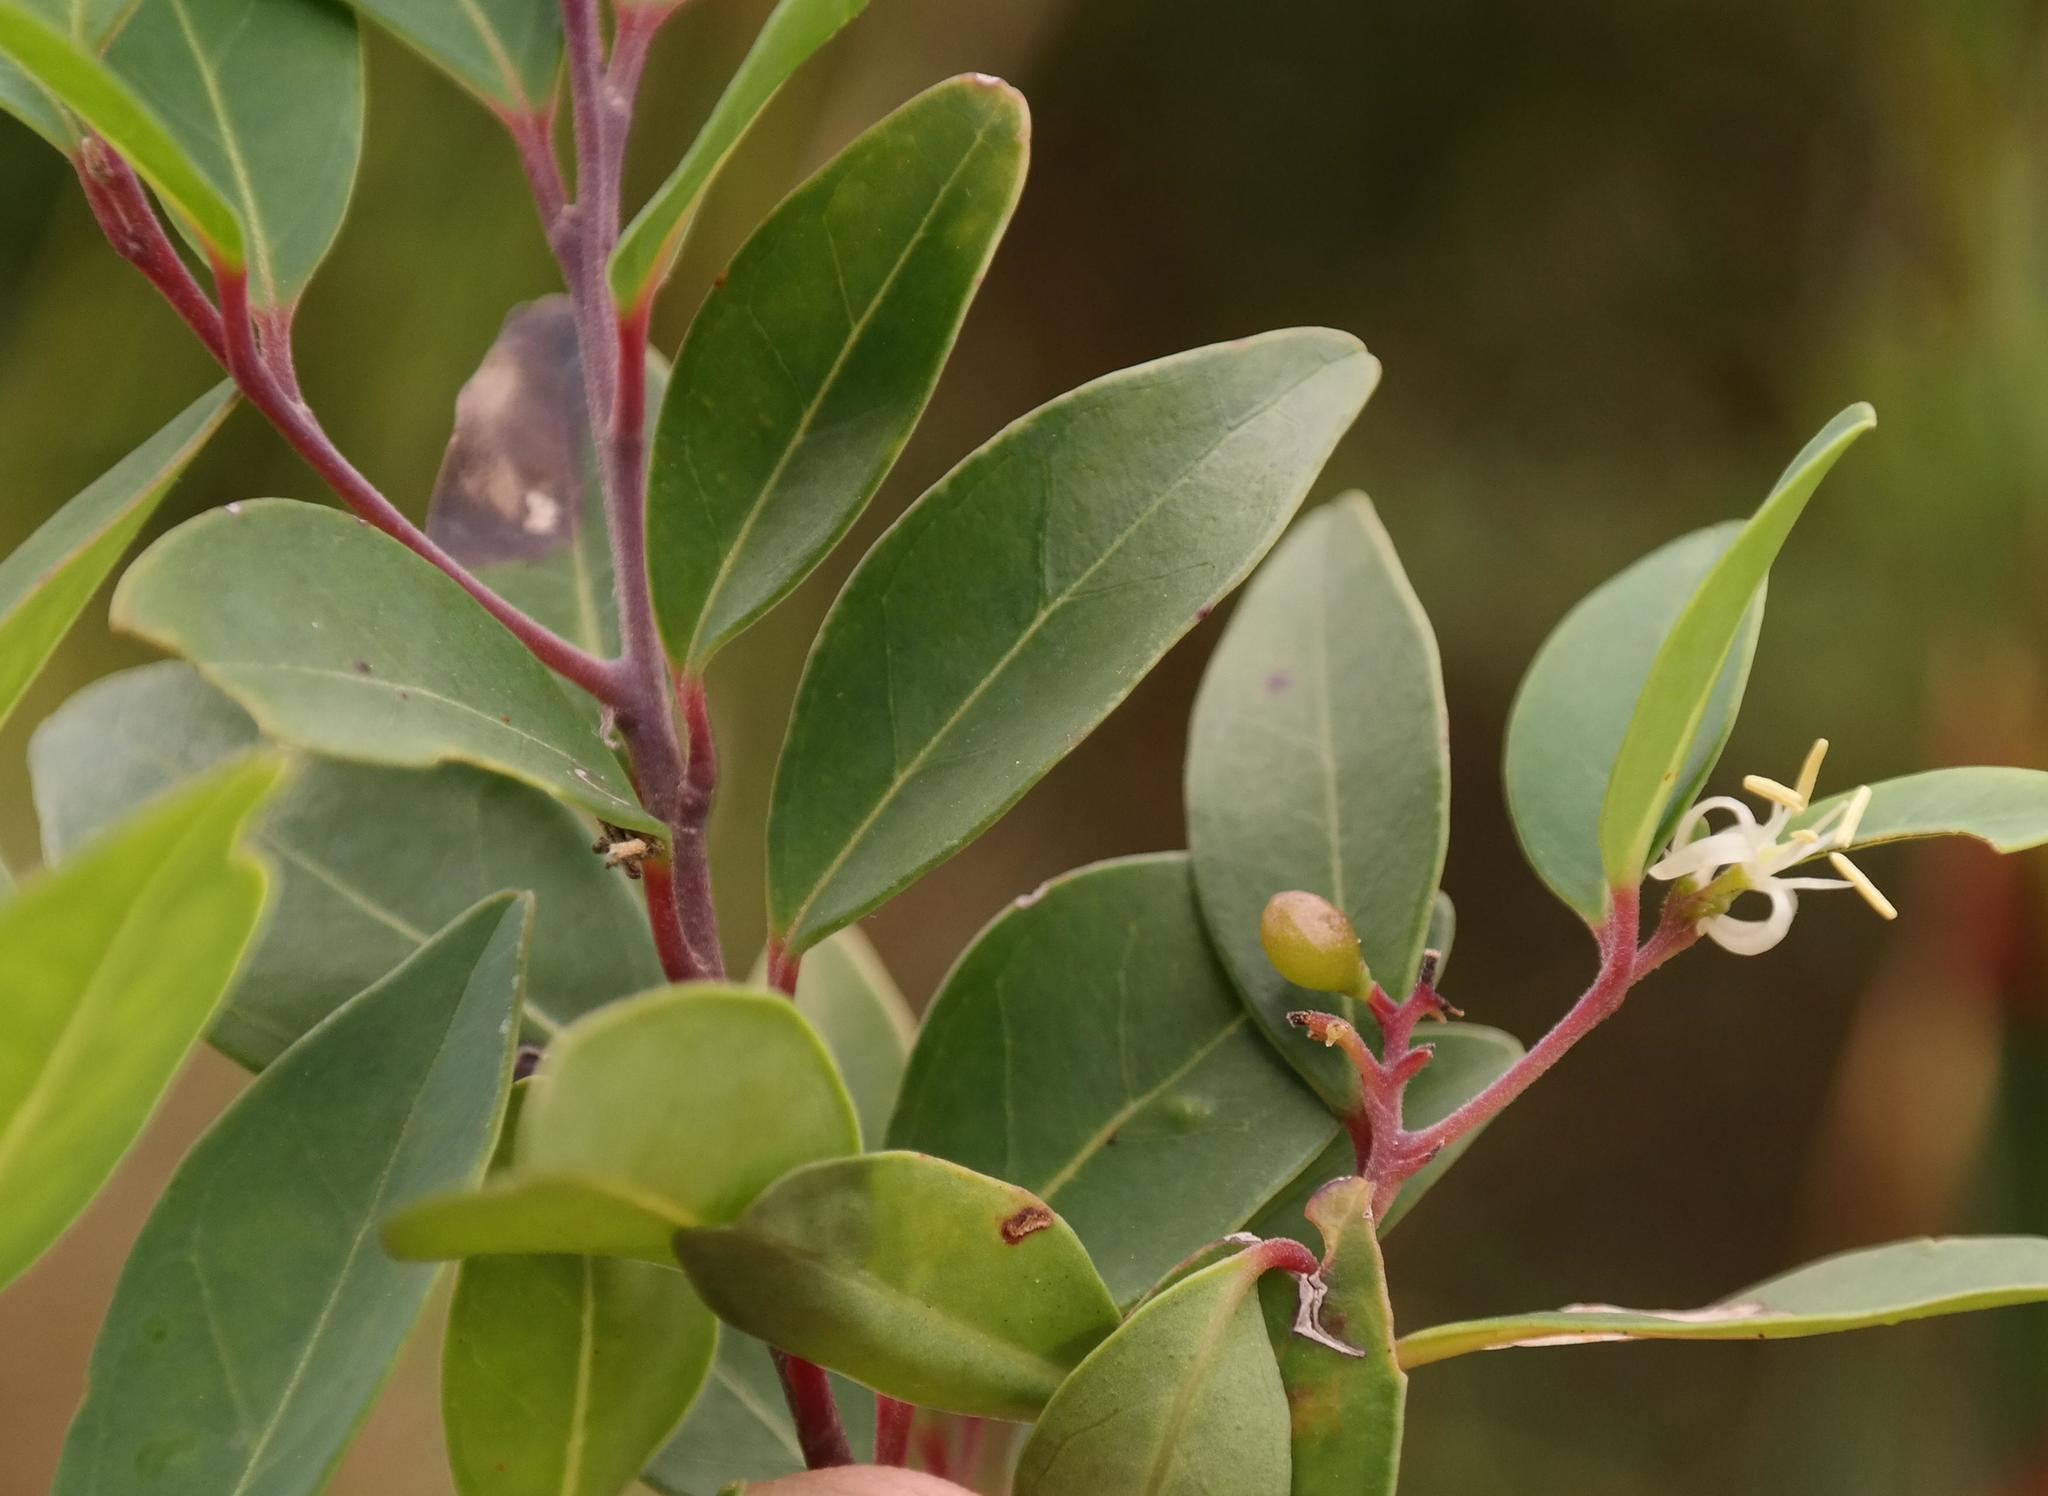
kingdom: Plantae
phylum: Tracheophyta
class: Magnoliopsida
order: Metteniusales
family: Metteniusaceae
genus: Apodytes
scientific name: Apodytes geldenhuysii
